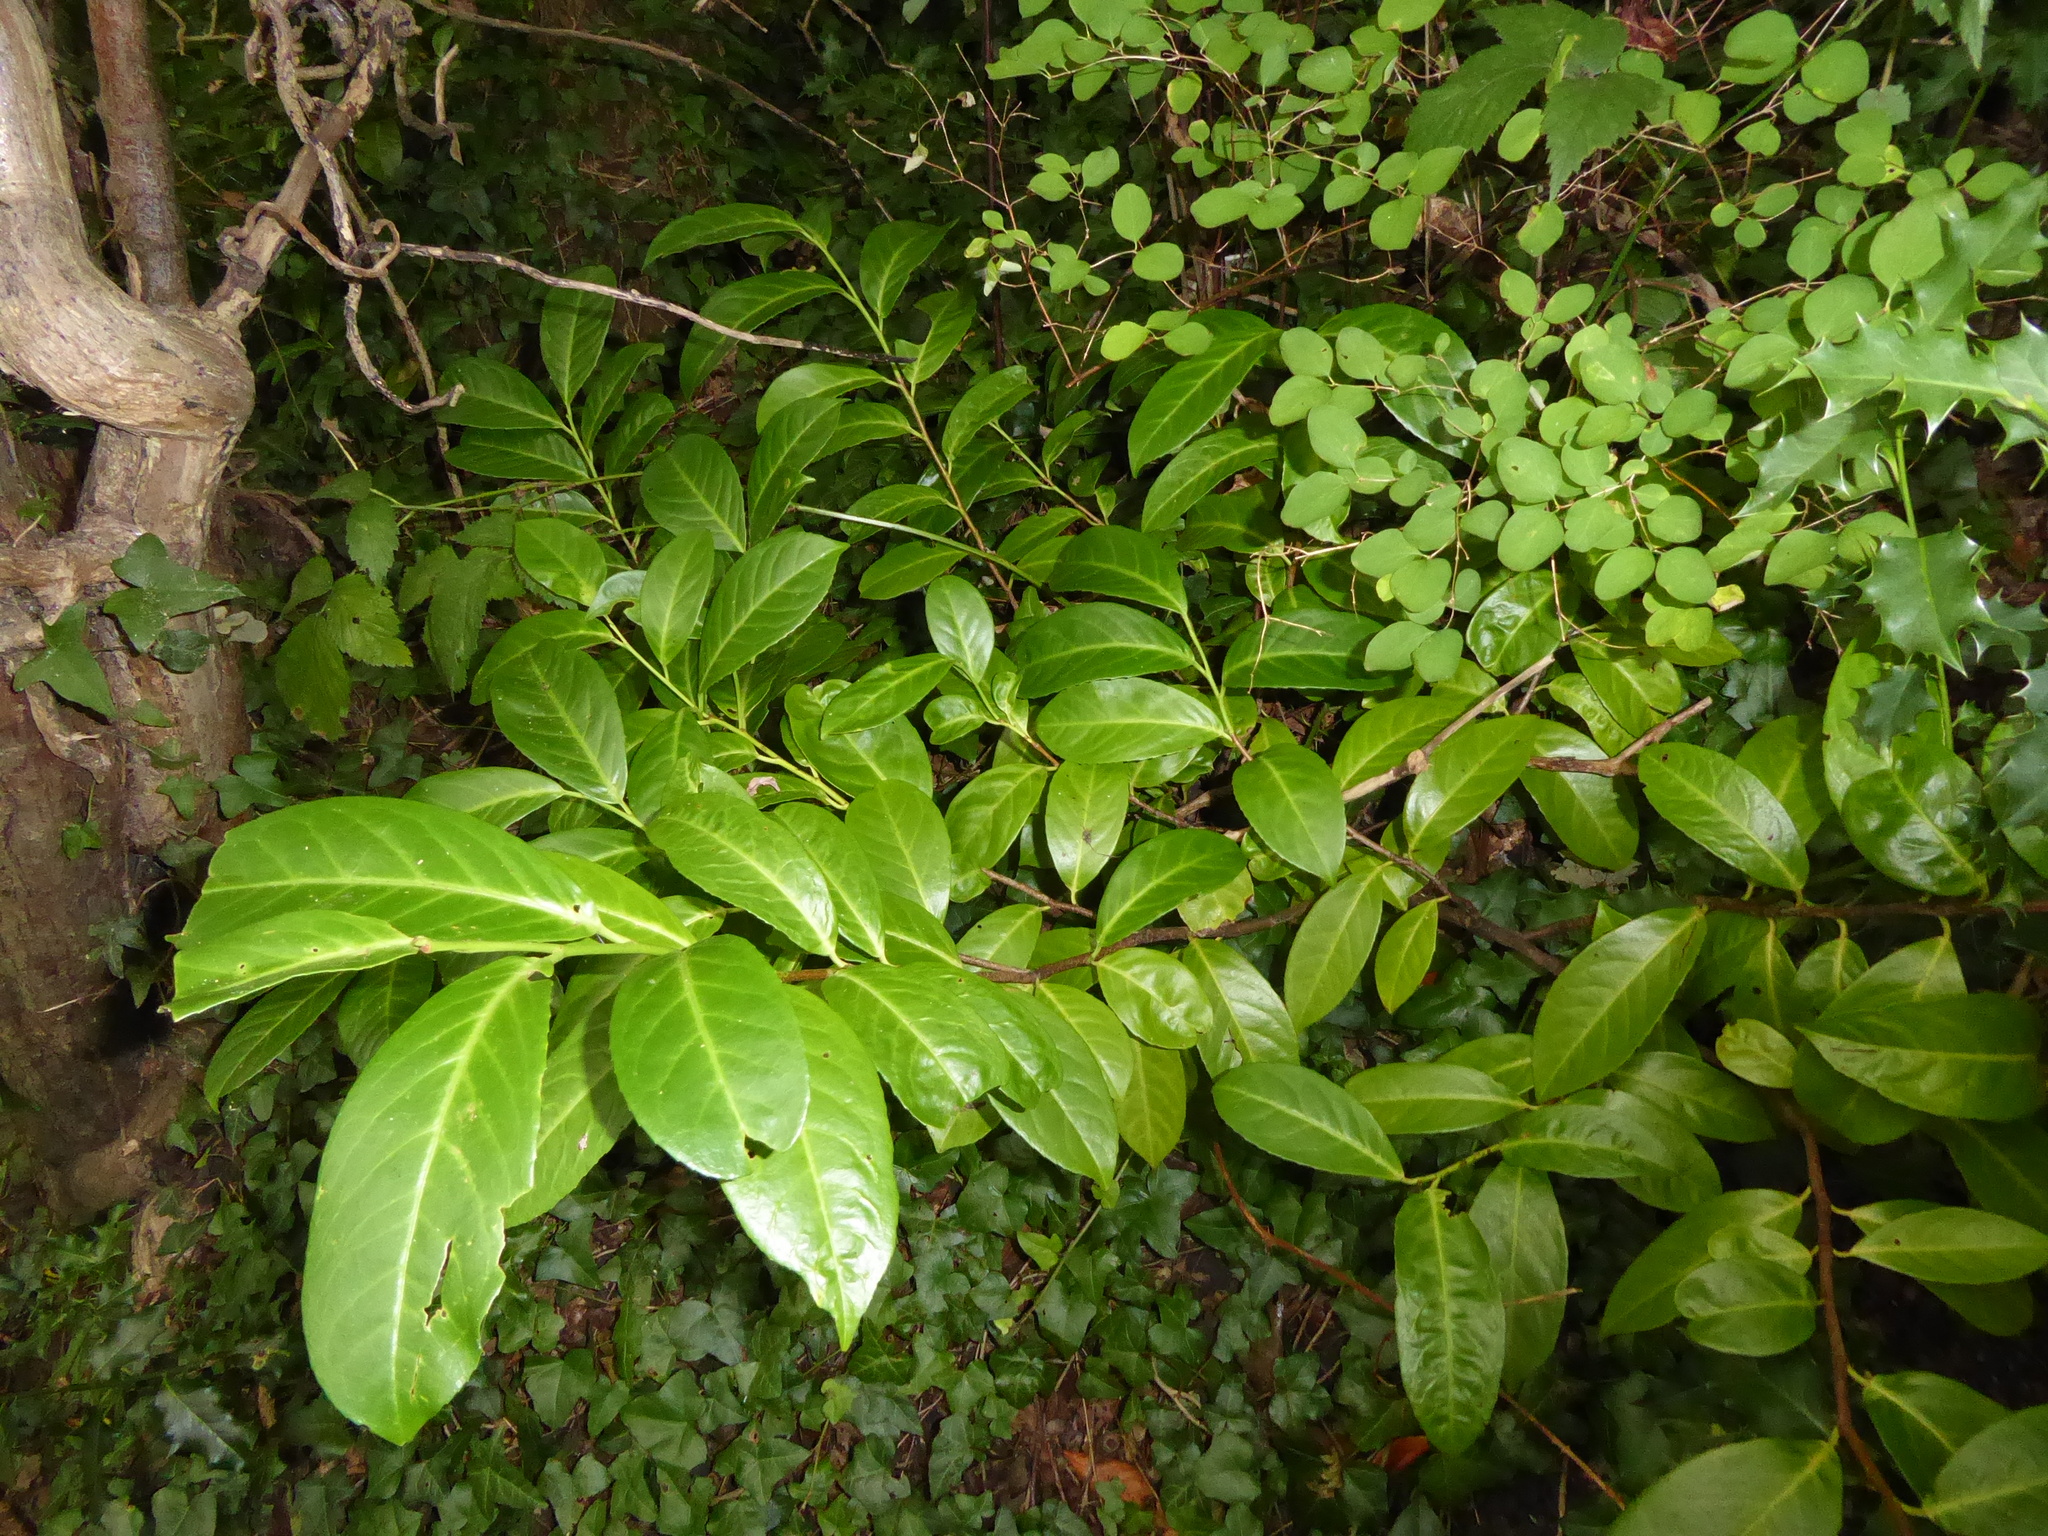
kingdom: Plantae
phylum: Tracheophyta
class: Magnoliopsida
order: Rosales
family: Rosaceae
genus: Prunus
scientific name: Prunus laurocerasus
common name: Cherry laurel
